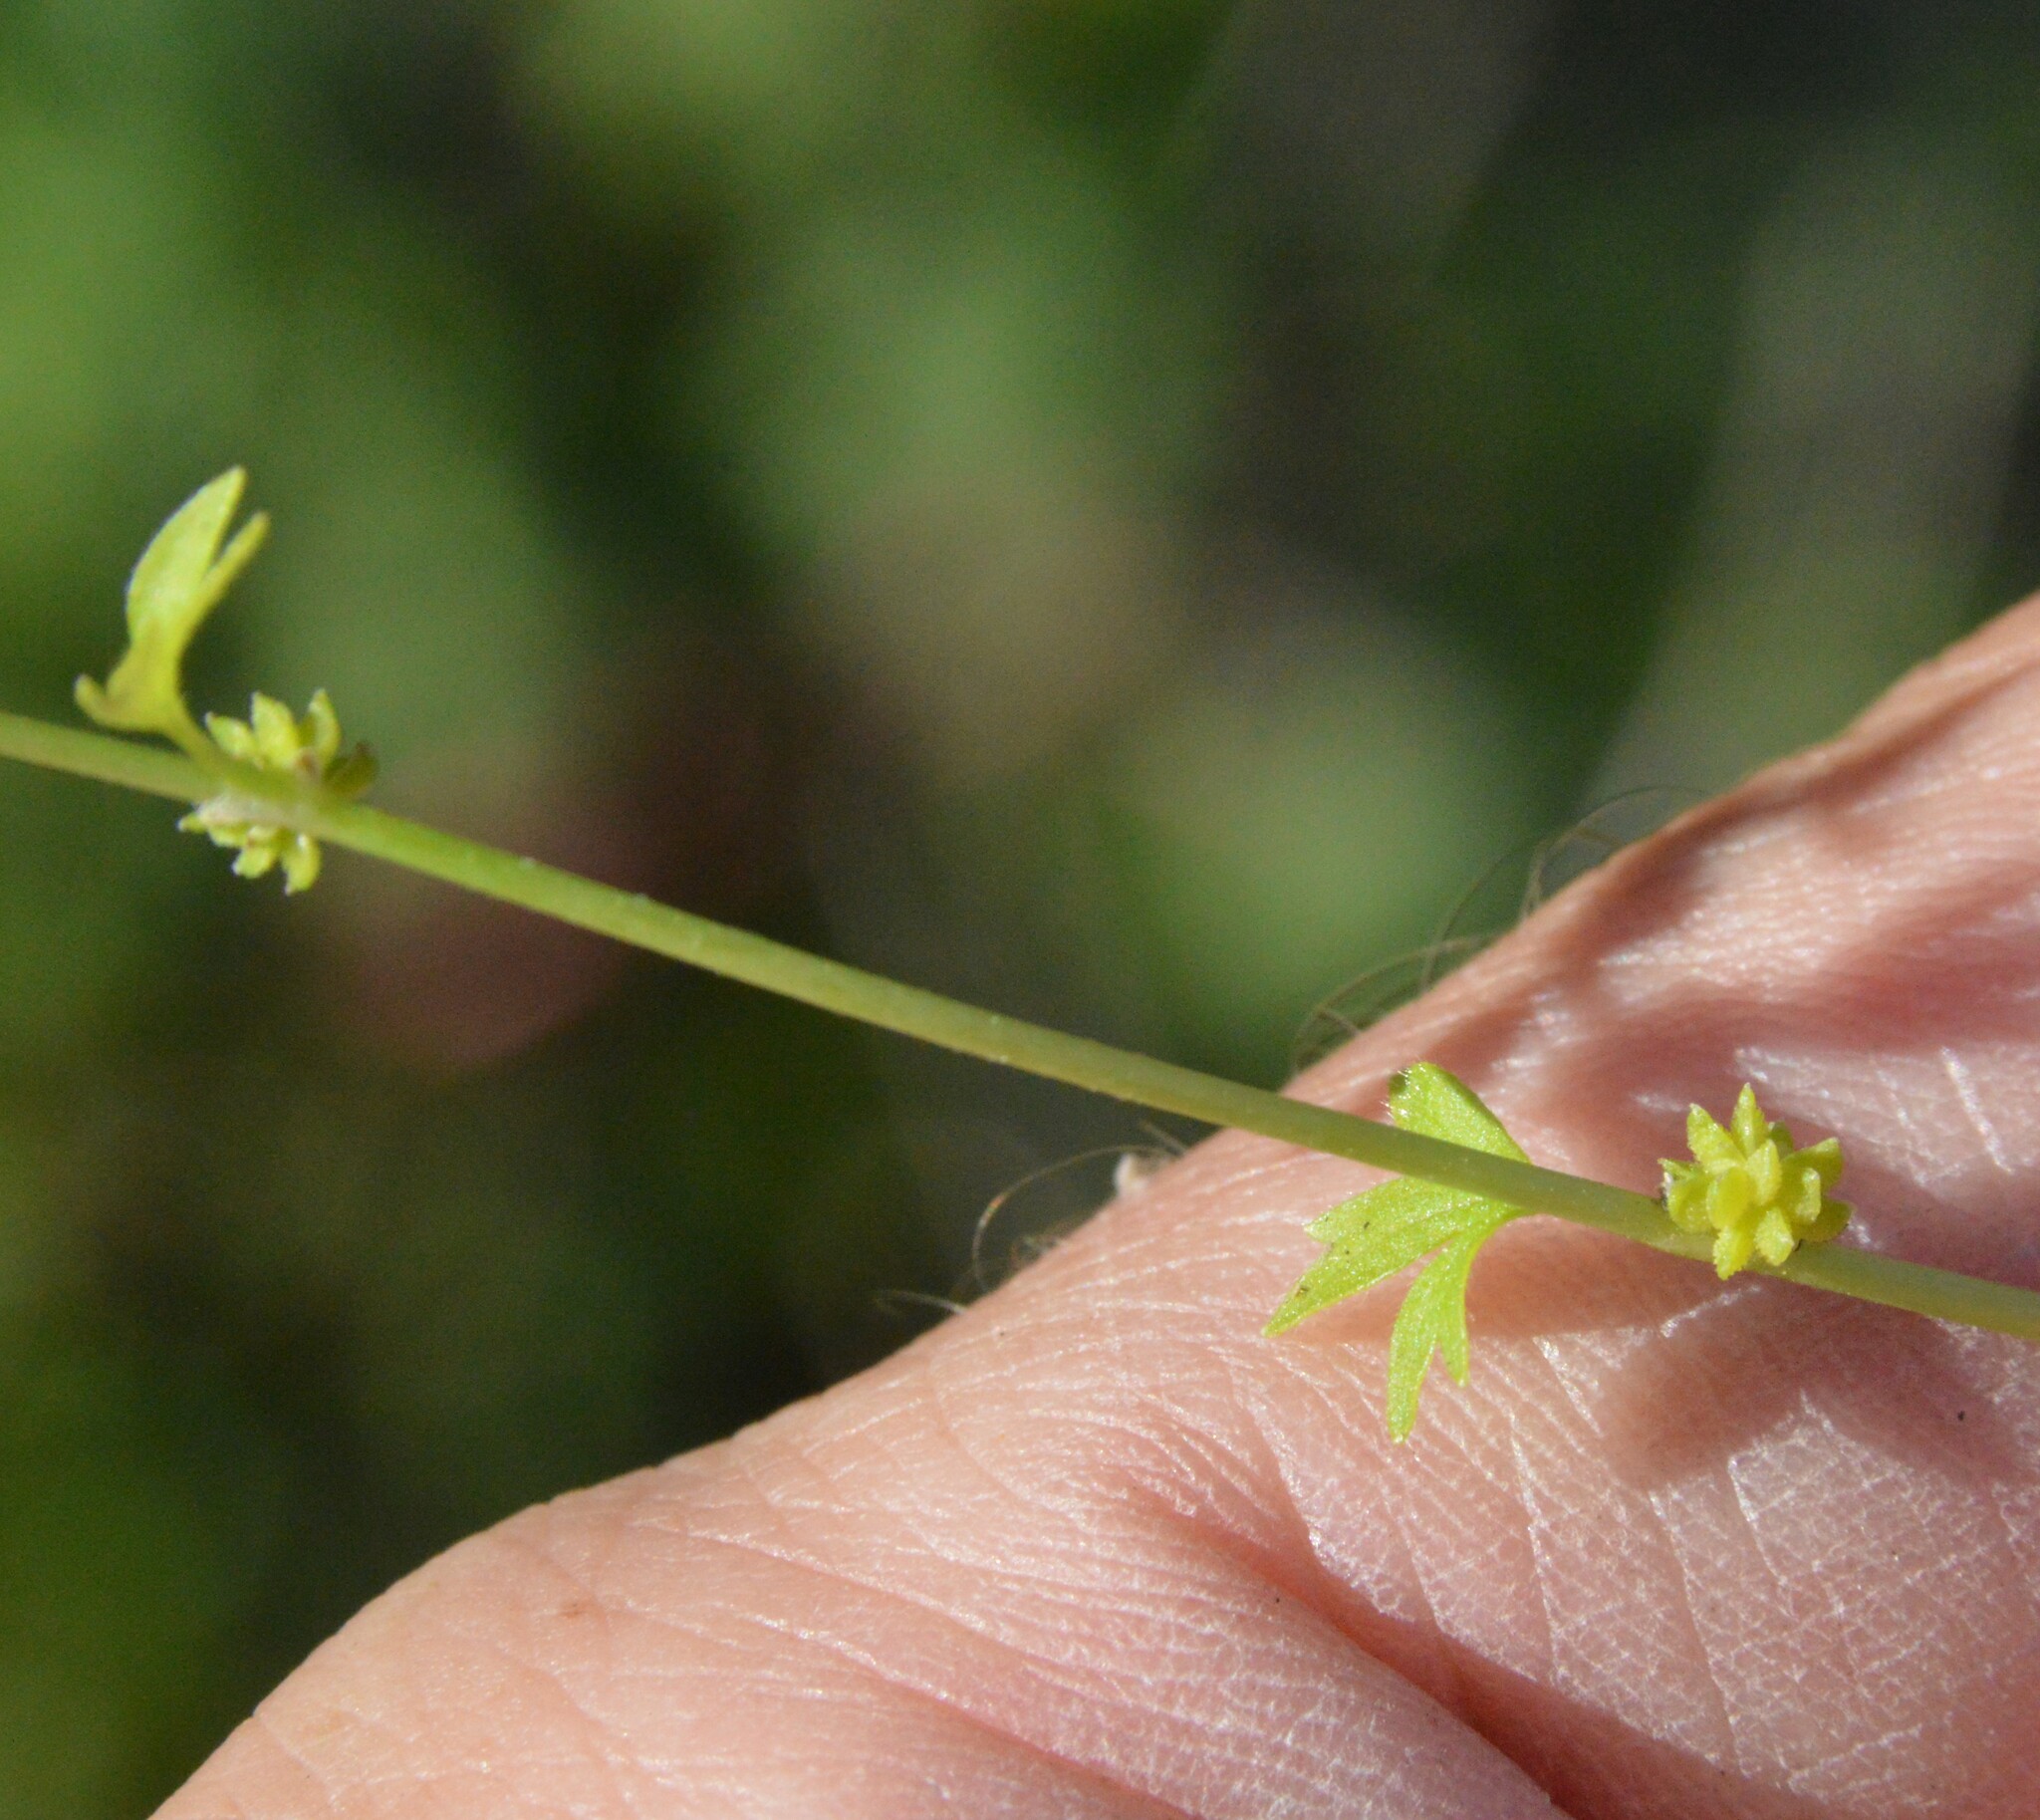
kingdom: Plantae
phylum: Tracheophyta
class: Magnoliopsida
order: Ranunculales
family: Ranunculaceae
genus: Ranunculus
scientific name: Ranunculus platensis
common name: Prairie buttercup
